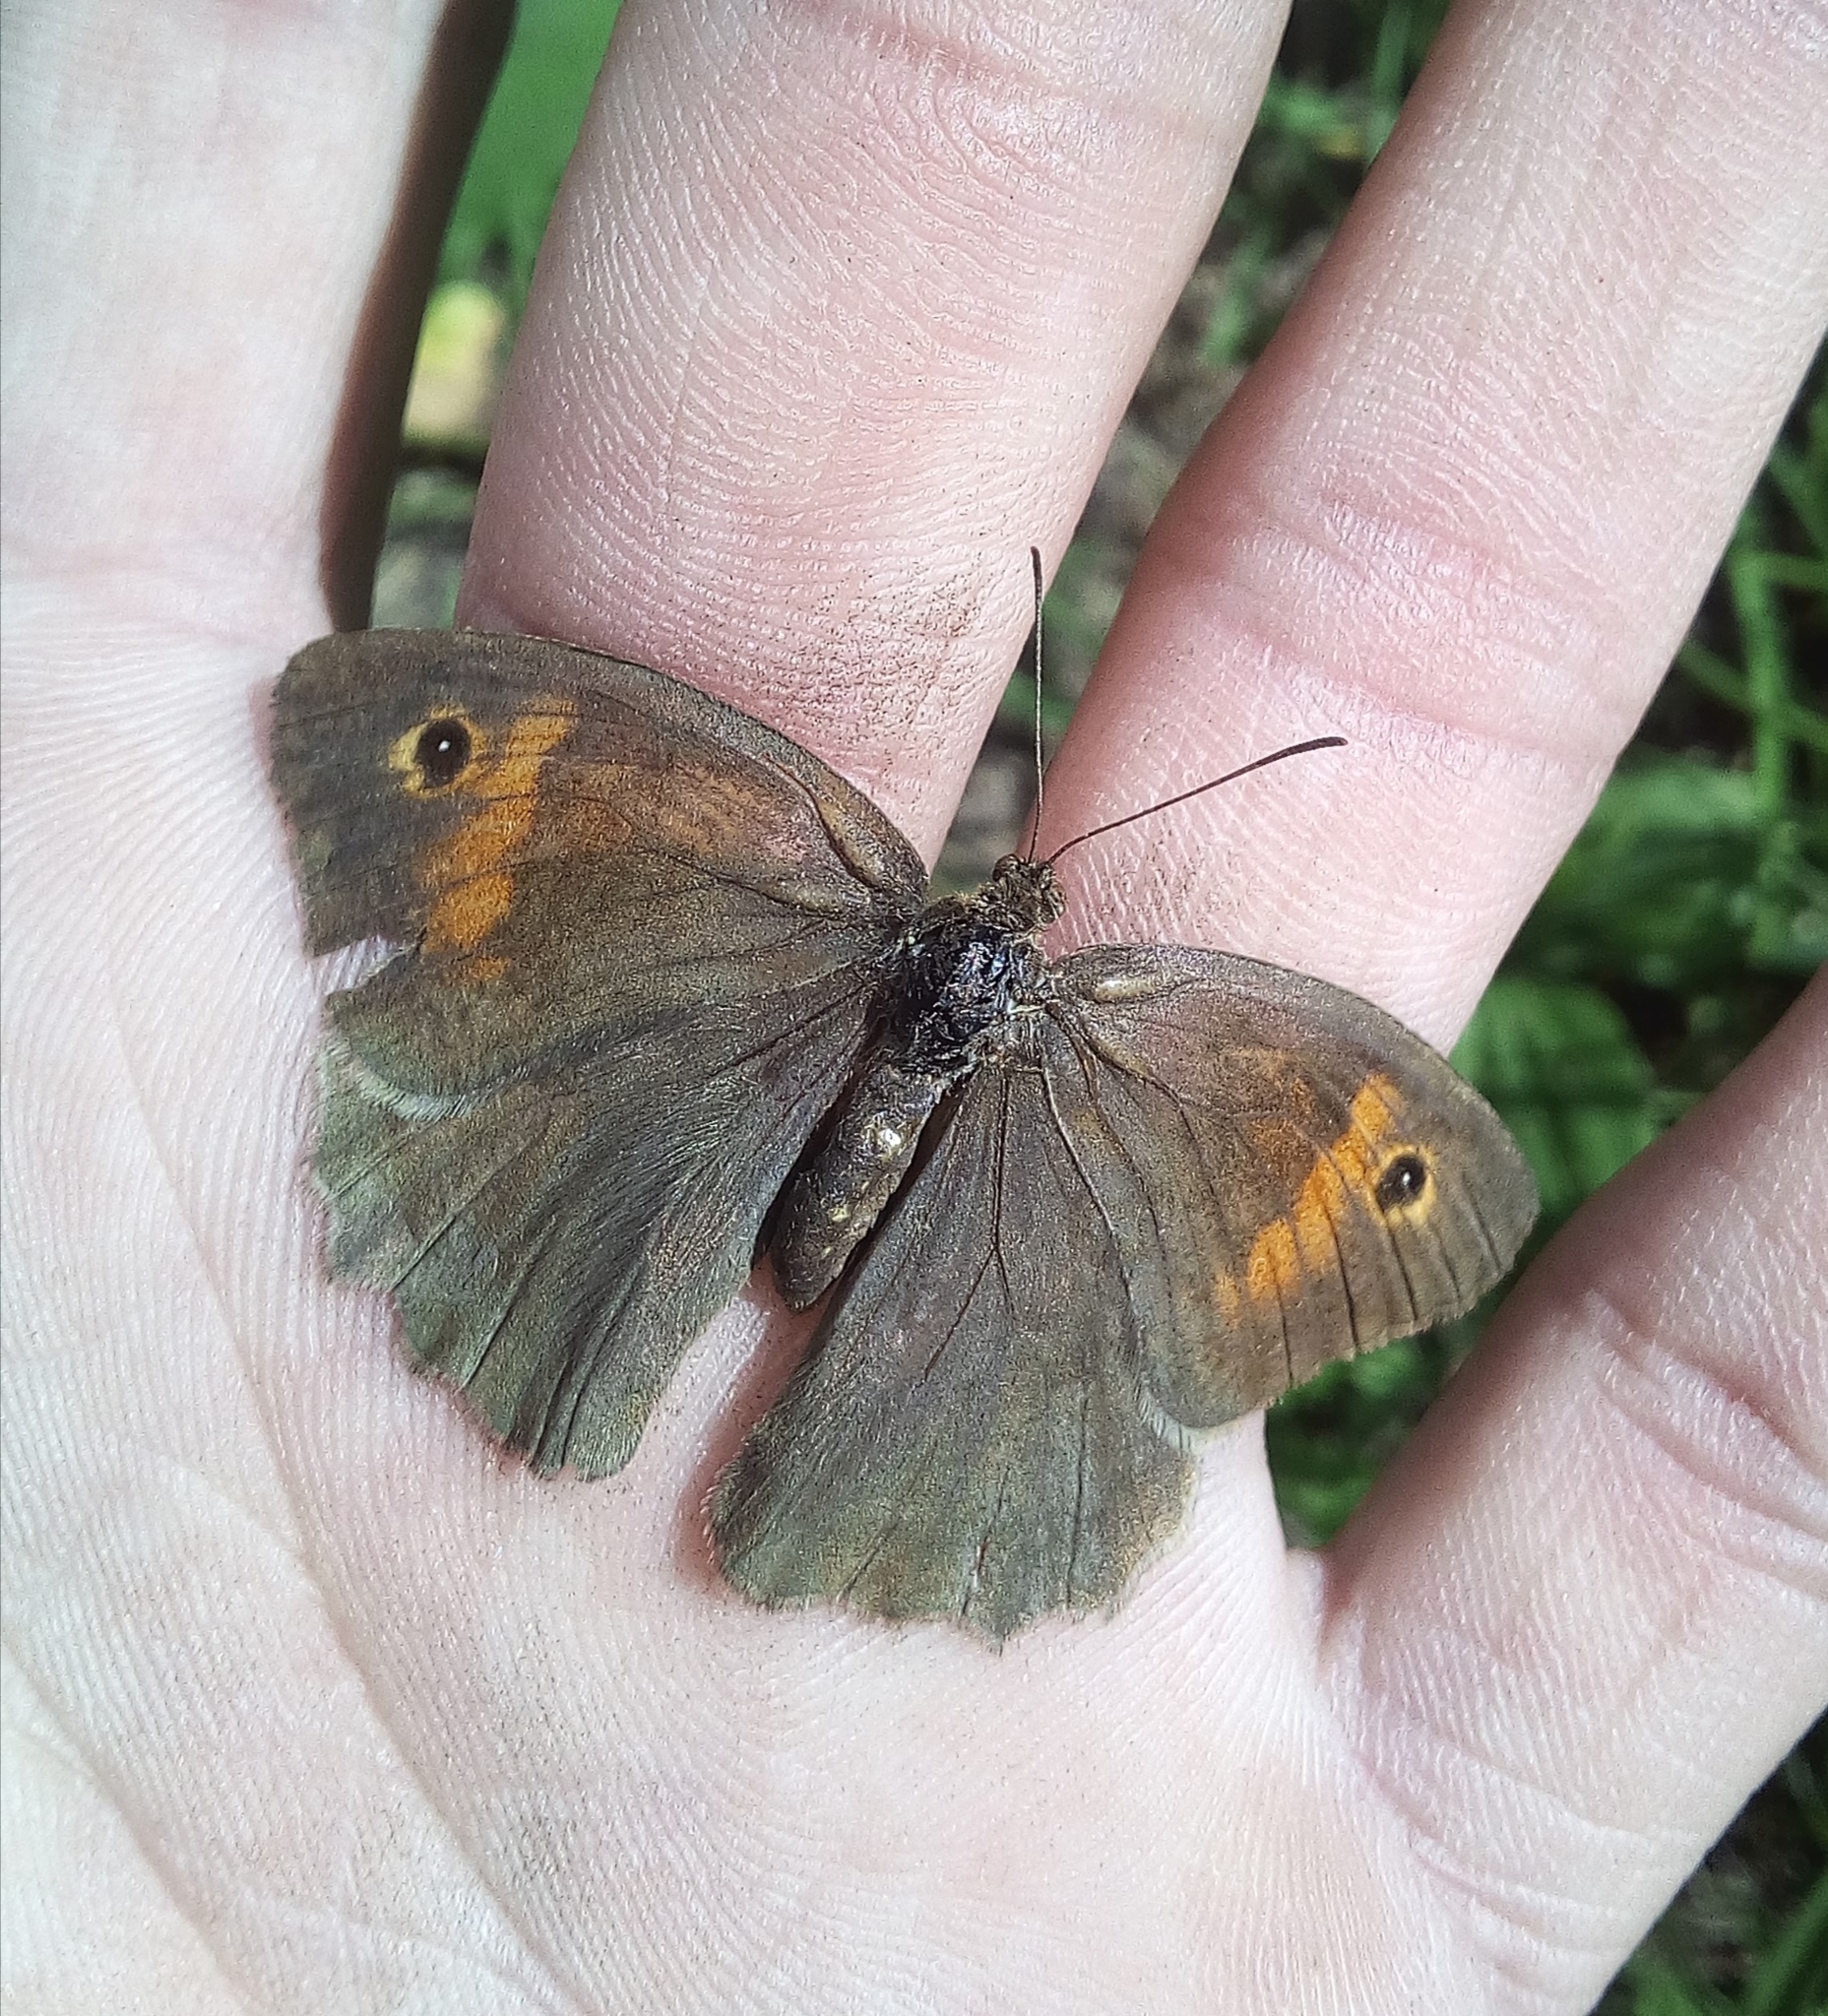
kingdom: Animalia
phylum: Arthropoda
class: Insecta
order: Lepidoptera
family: Nymphalidae
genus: Maniola
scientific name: Maniola jurtina
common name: Meadow brown
